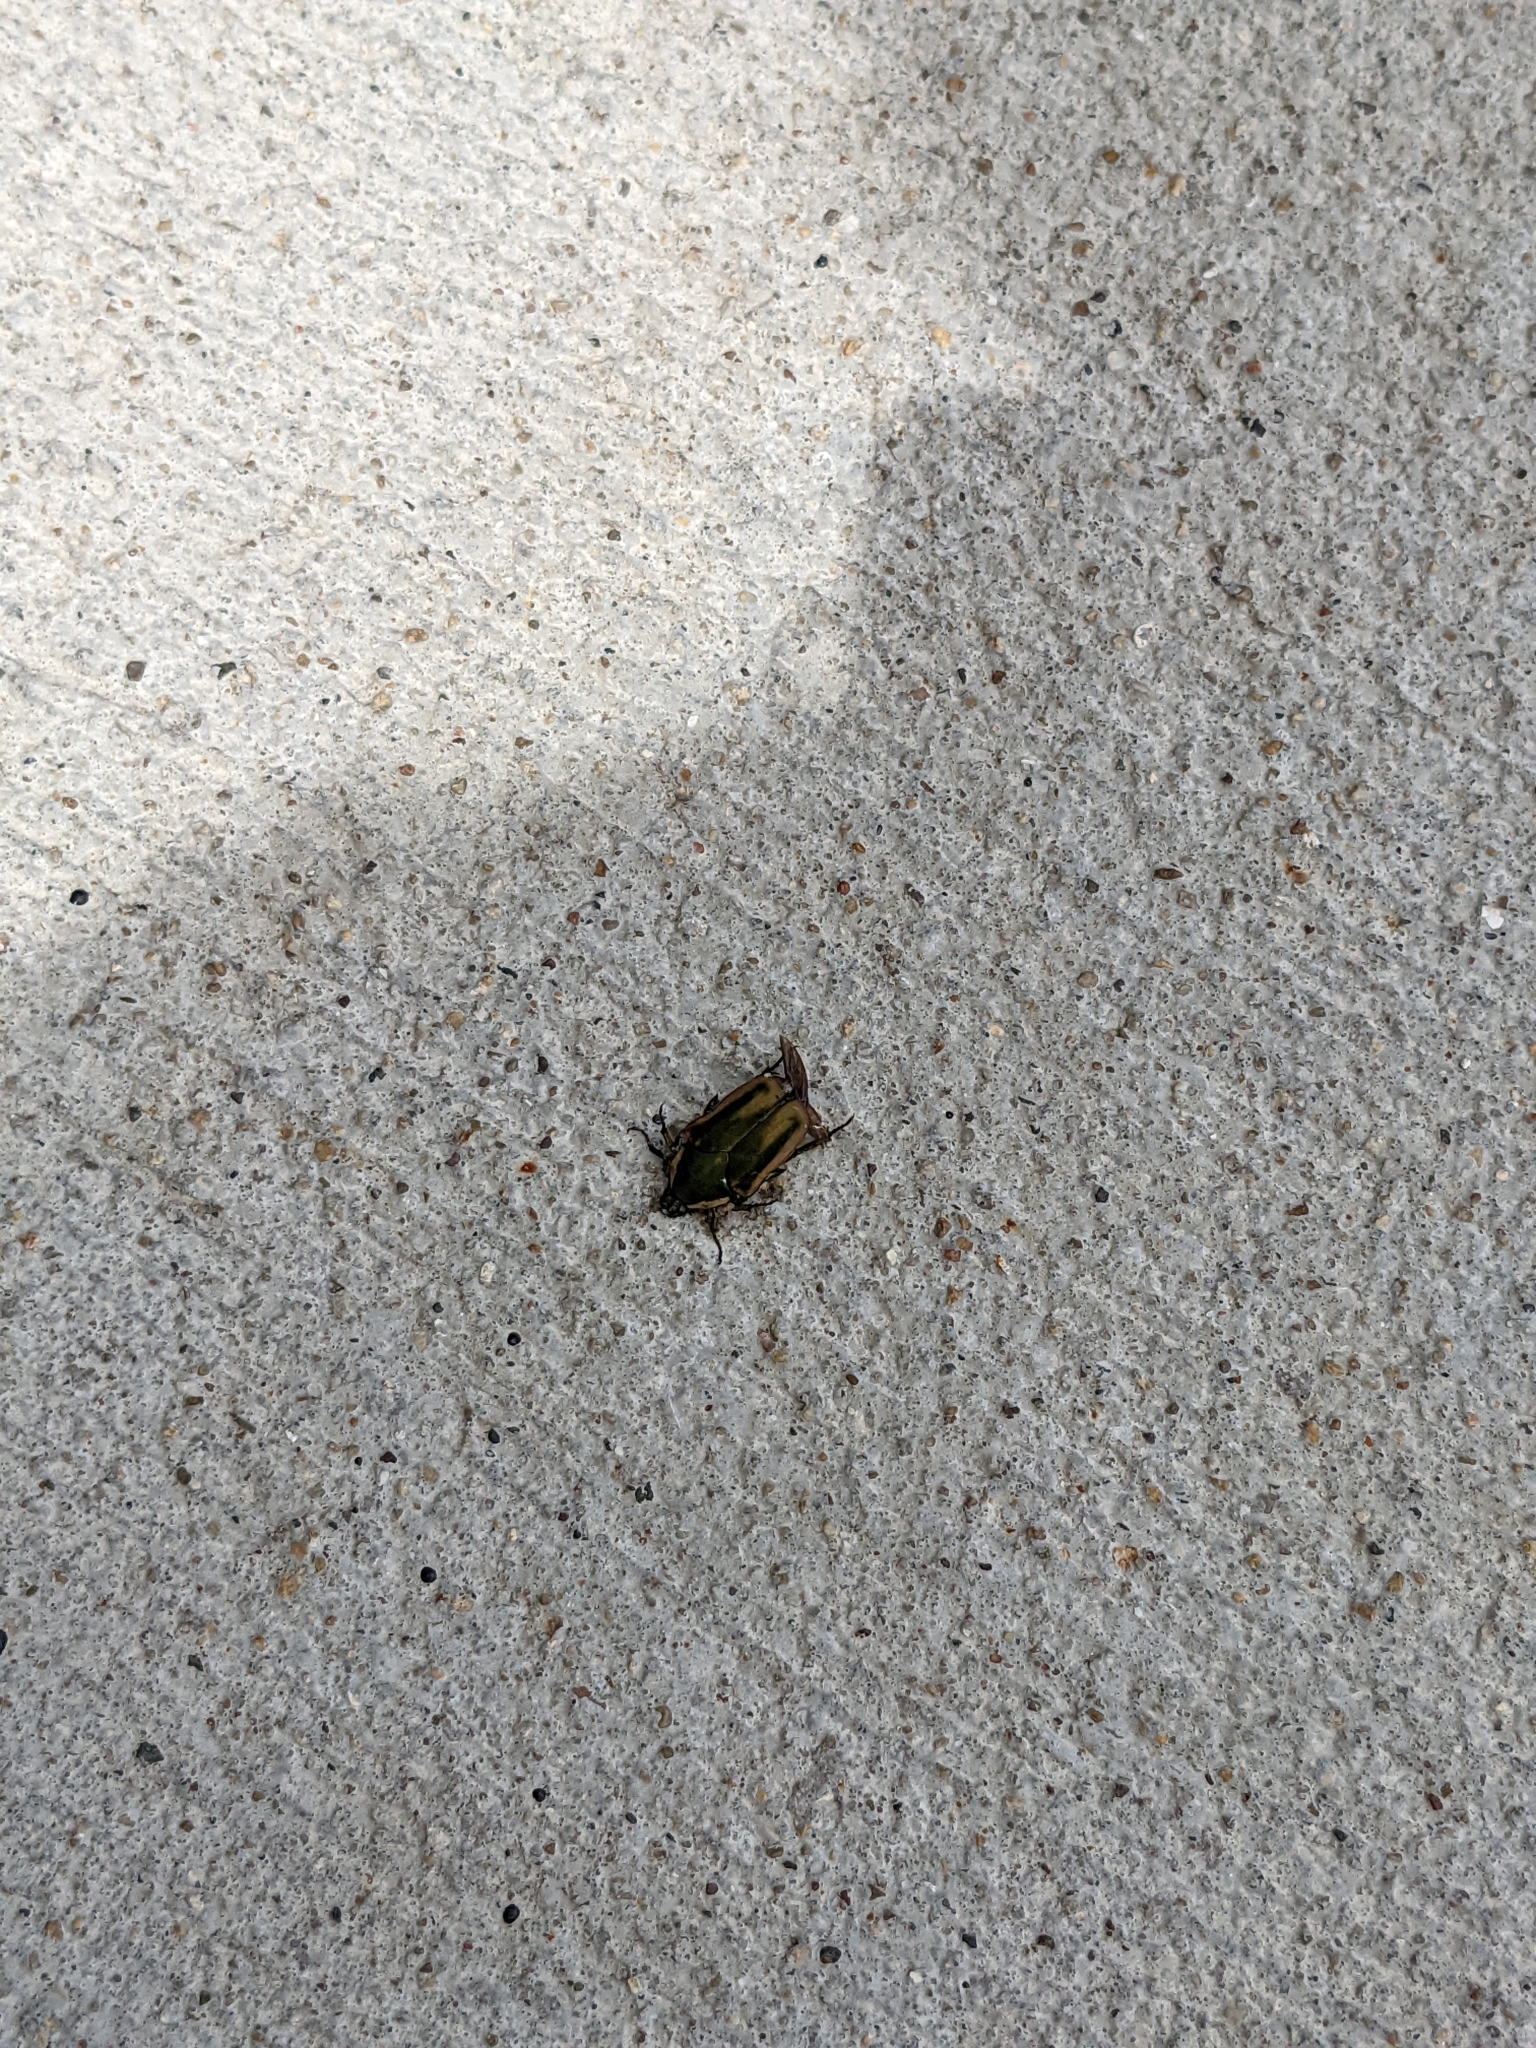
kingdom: Animalia
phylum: Arthropoda
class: Insecta
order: Coleoptera
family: Scarabaeidae
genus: Cotinis
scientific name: Cotinis nitida
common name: Common green june beetle
